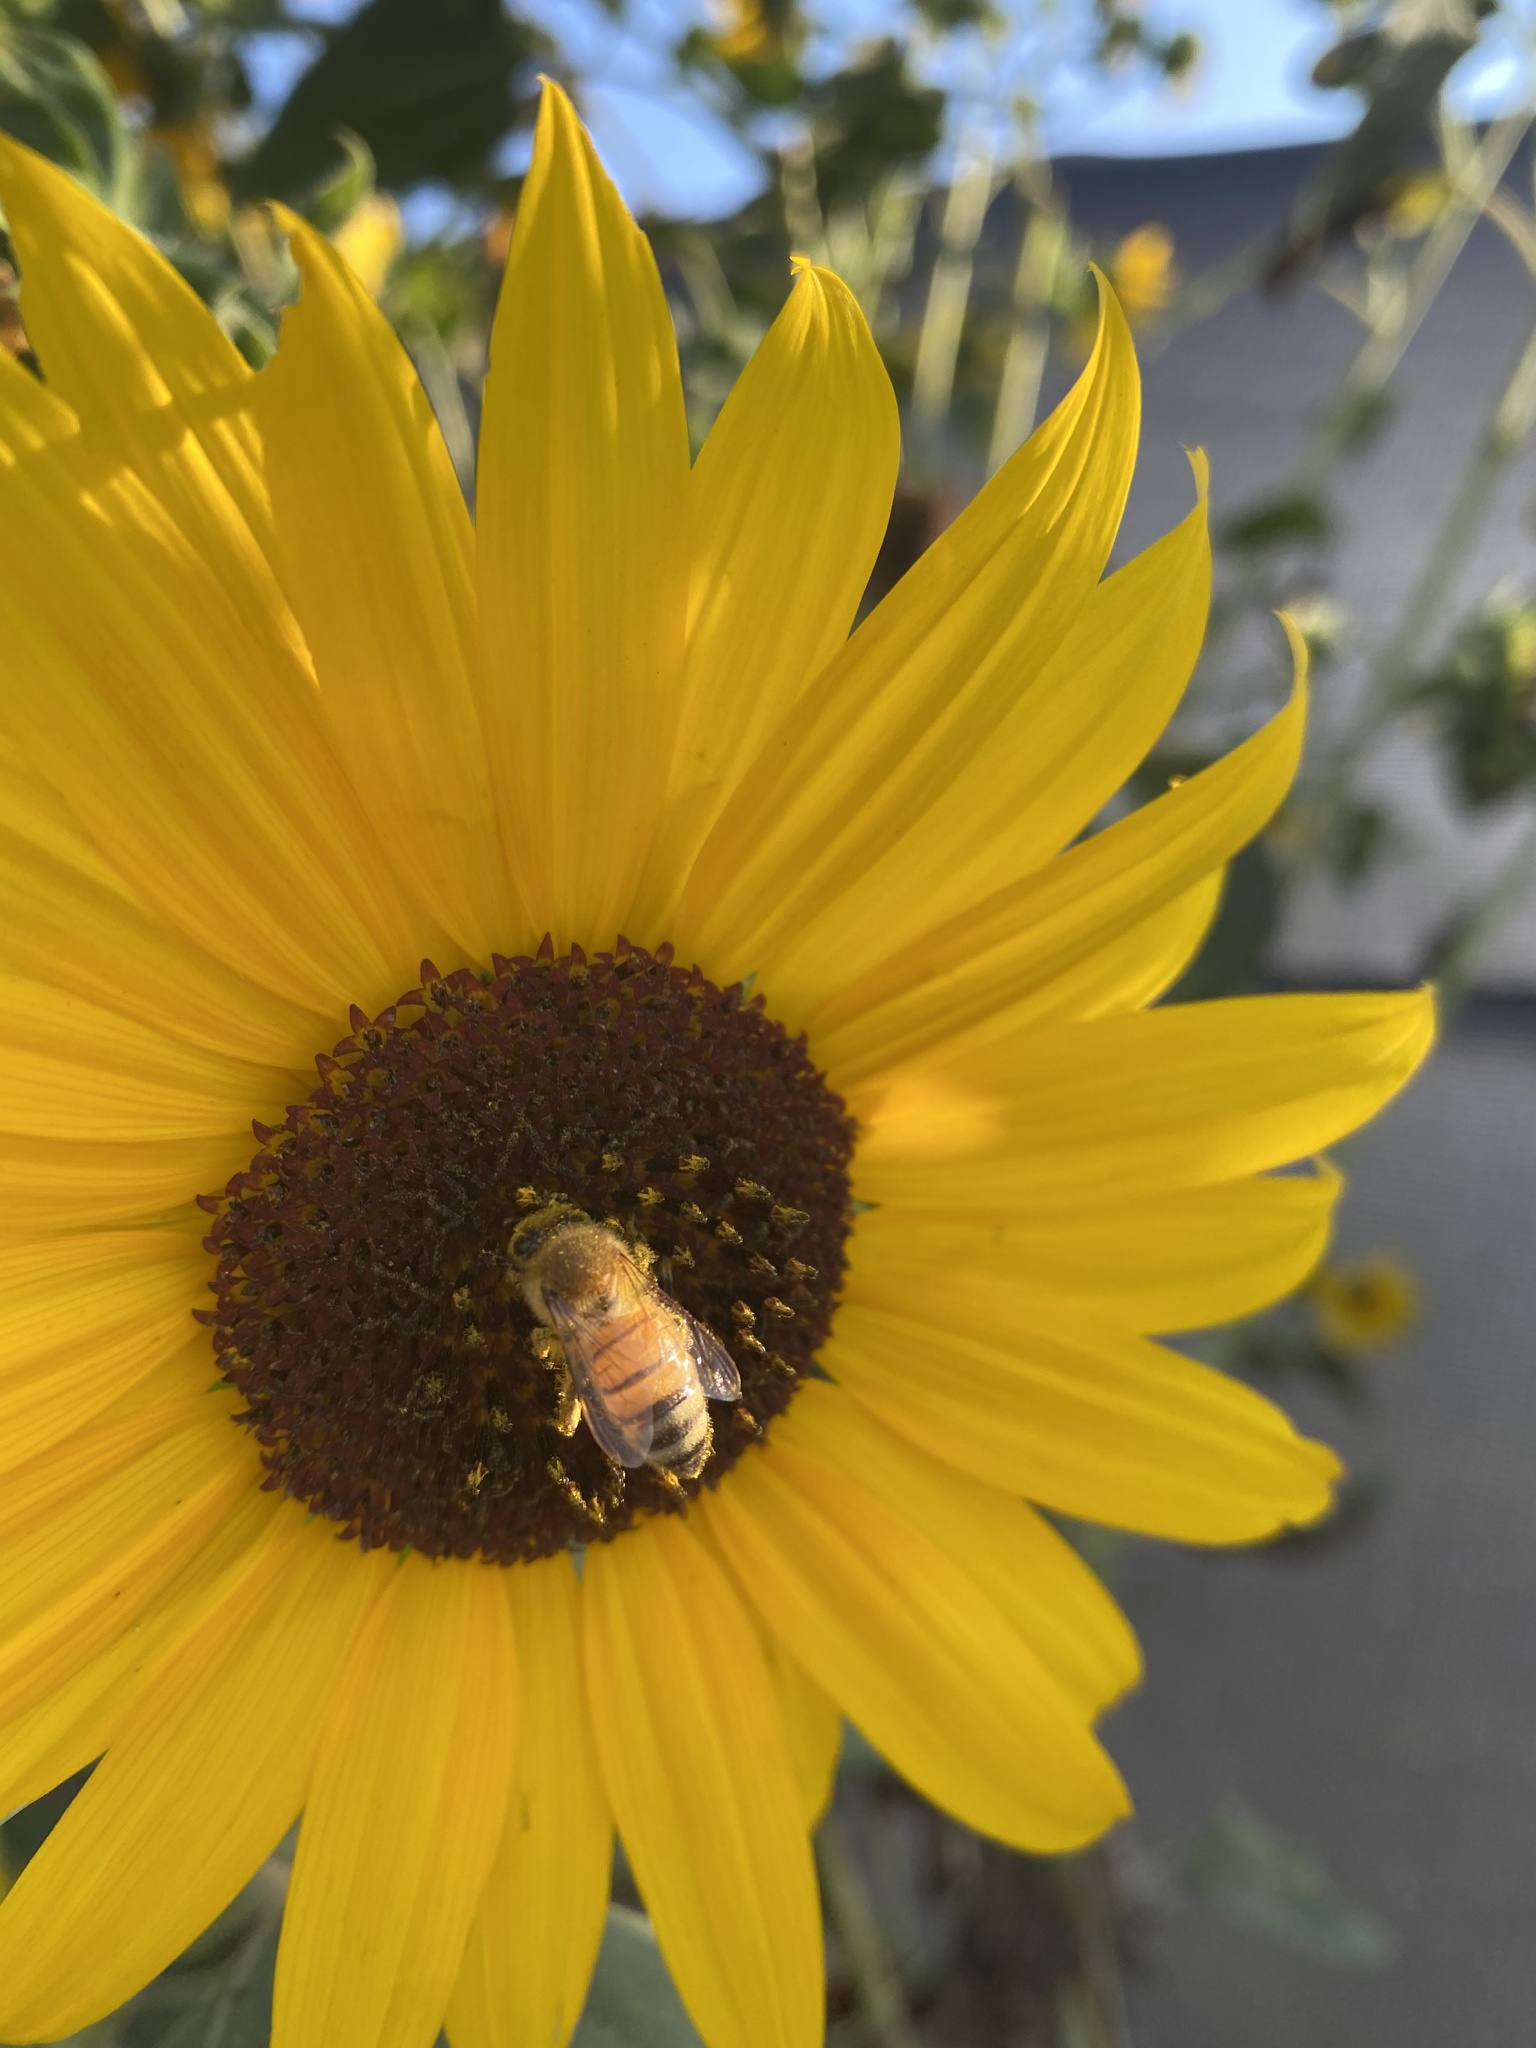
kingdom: Animalia
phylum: Arthropoda
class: Insecta
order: Hymenoptera
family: Apidae
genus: Apis
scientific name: Apis mellifera
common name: Honey bee
